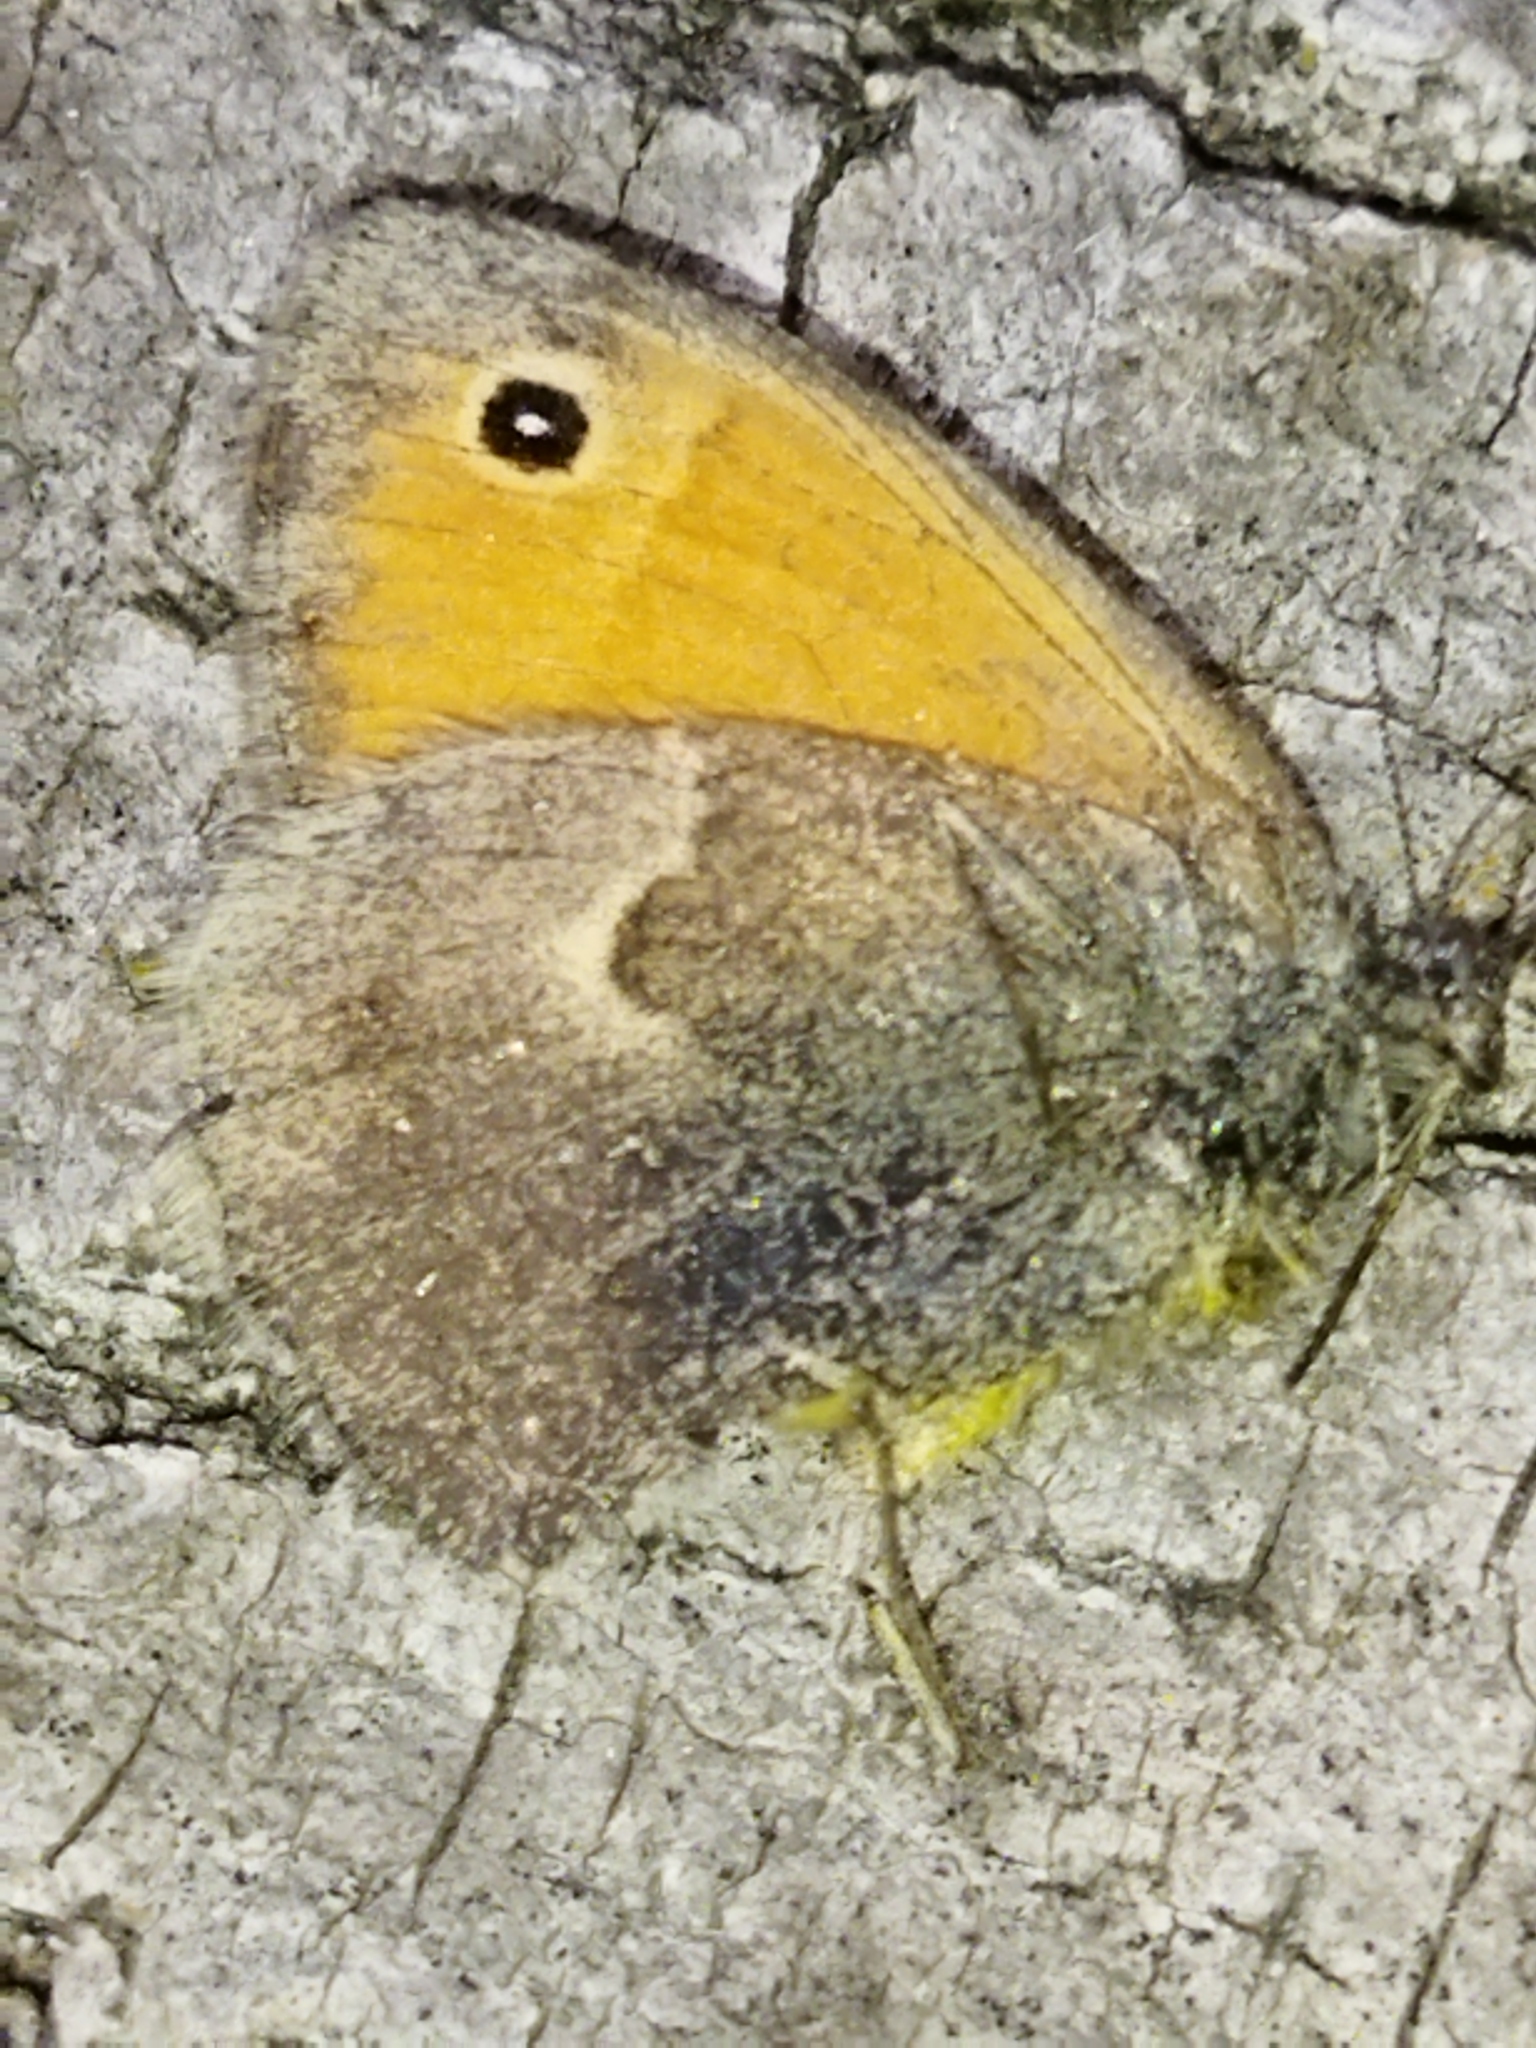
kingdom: Animalia
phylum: Arthropoda
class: Insecta
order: Lepidoptera
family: Nymphalidae
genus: Coenonympha
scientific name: Coenonympha pamphilus
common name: Small heath
